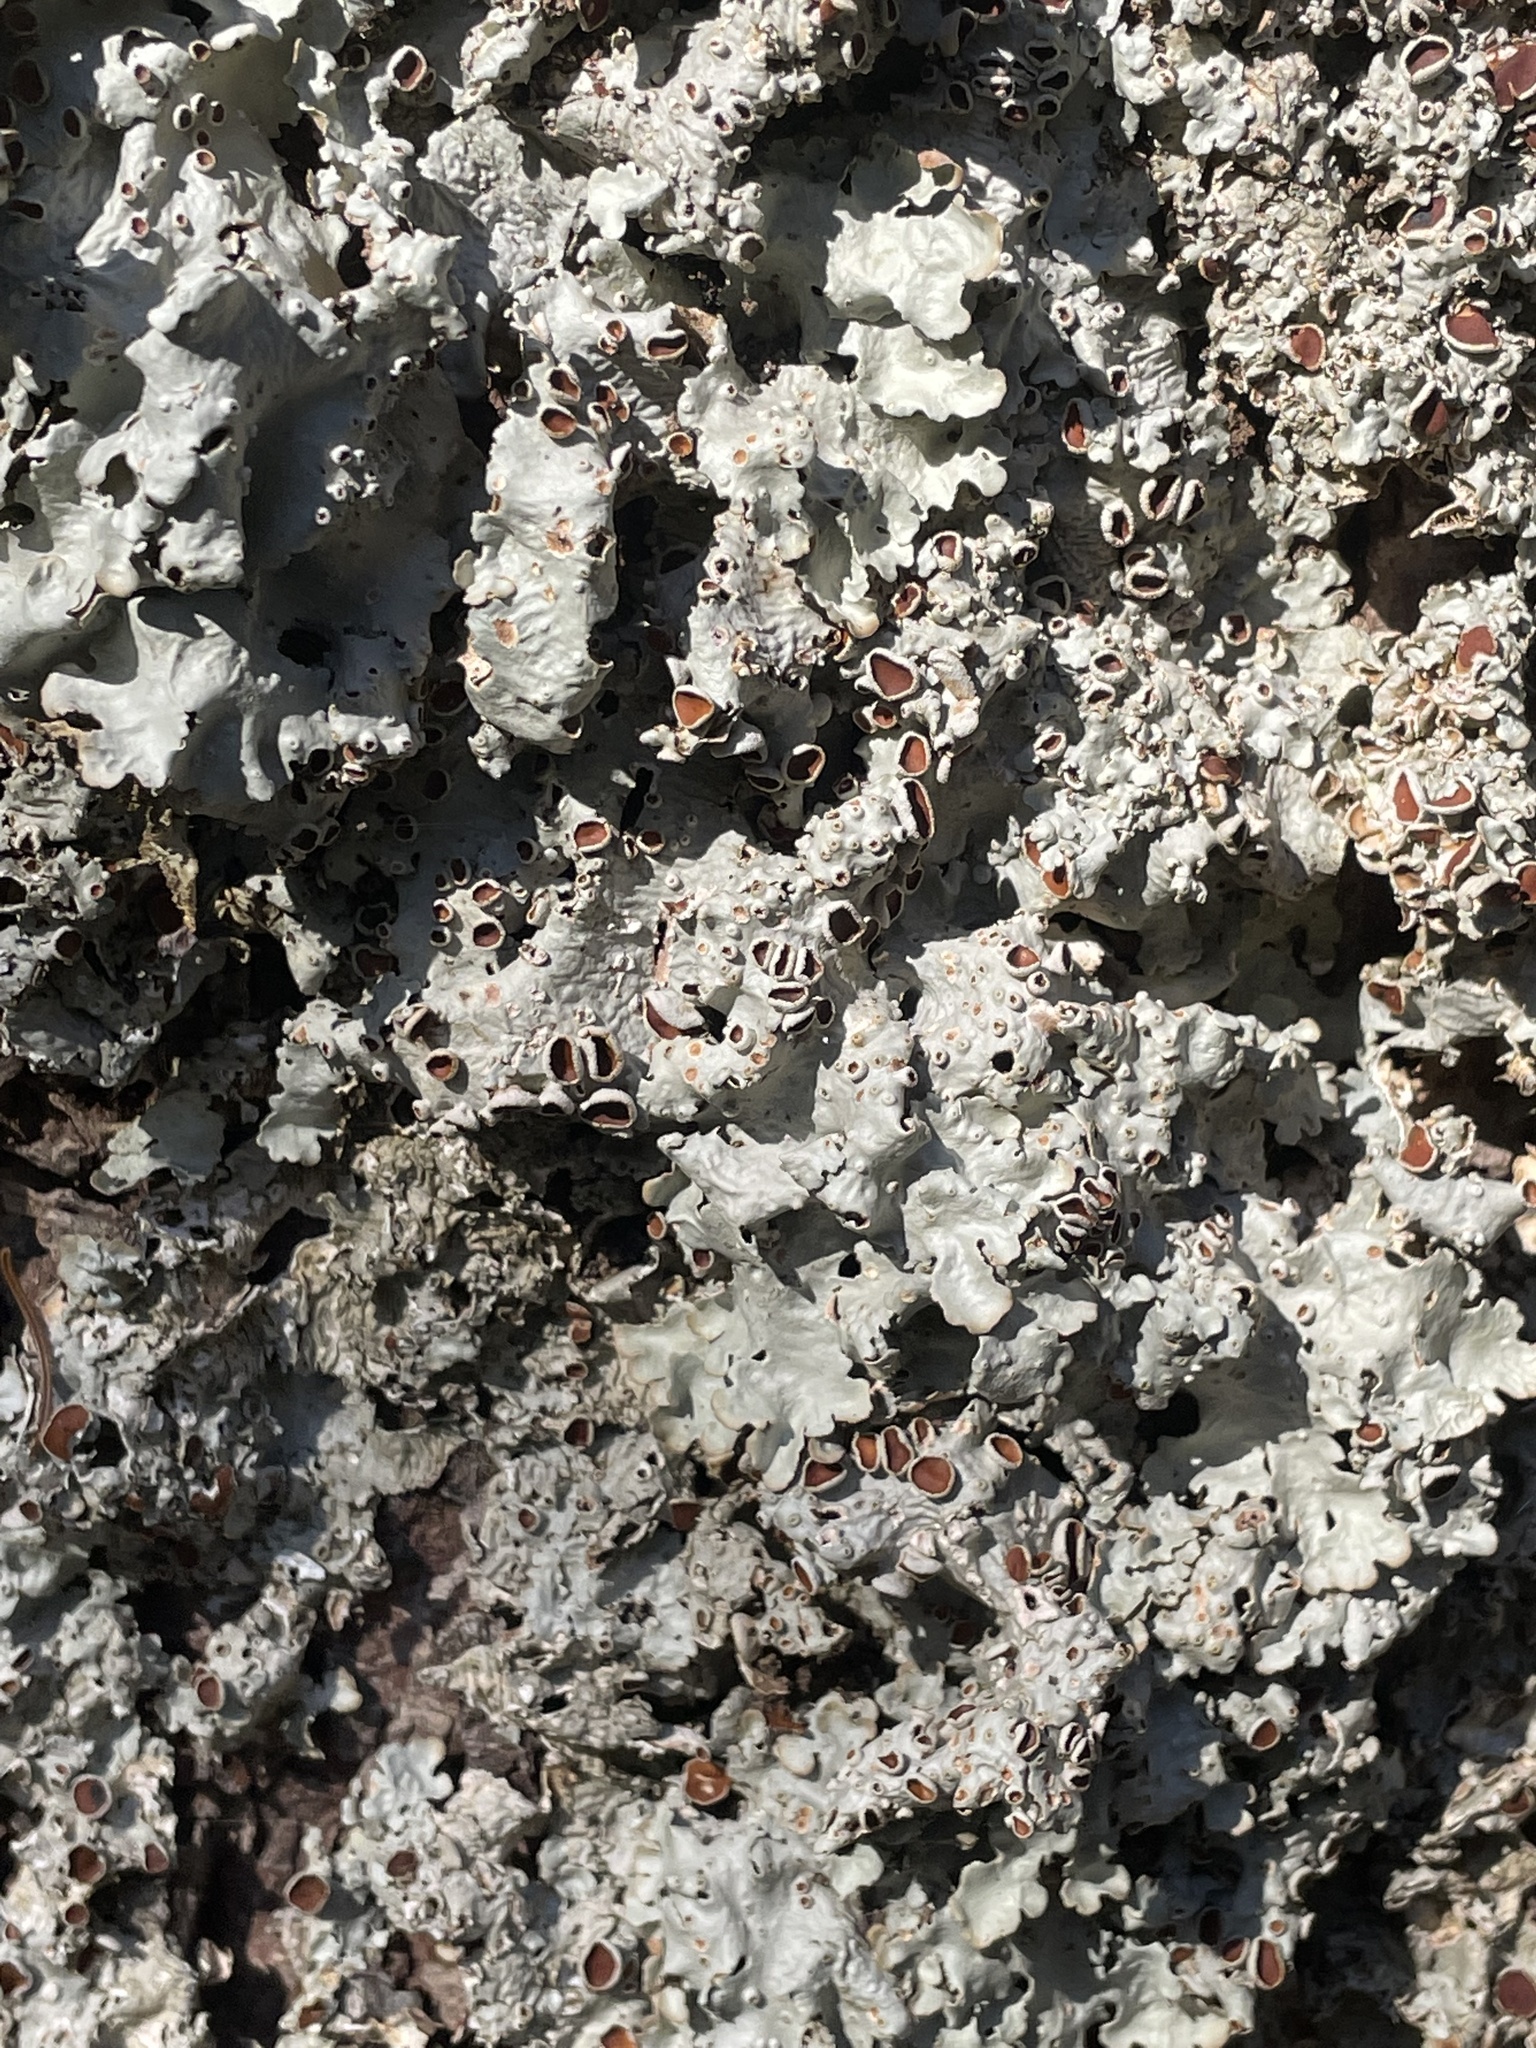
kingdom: Fungi
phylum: Ascomycota
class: Lecanoromycetes
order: Peltigerales
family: Lobariaceae
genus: Ricasolia
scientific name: Ricasolia quercizans
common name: Smooth lungwort
